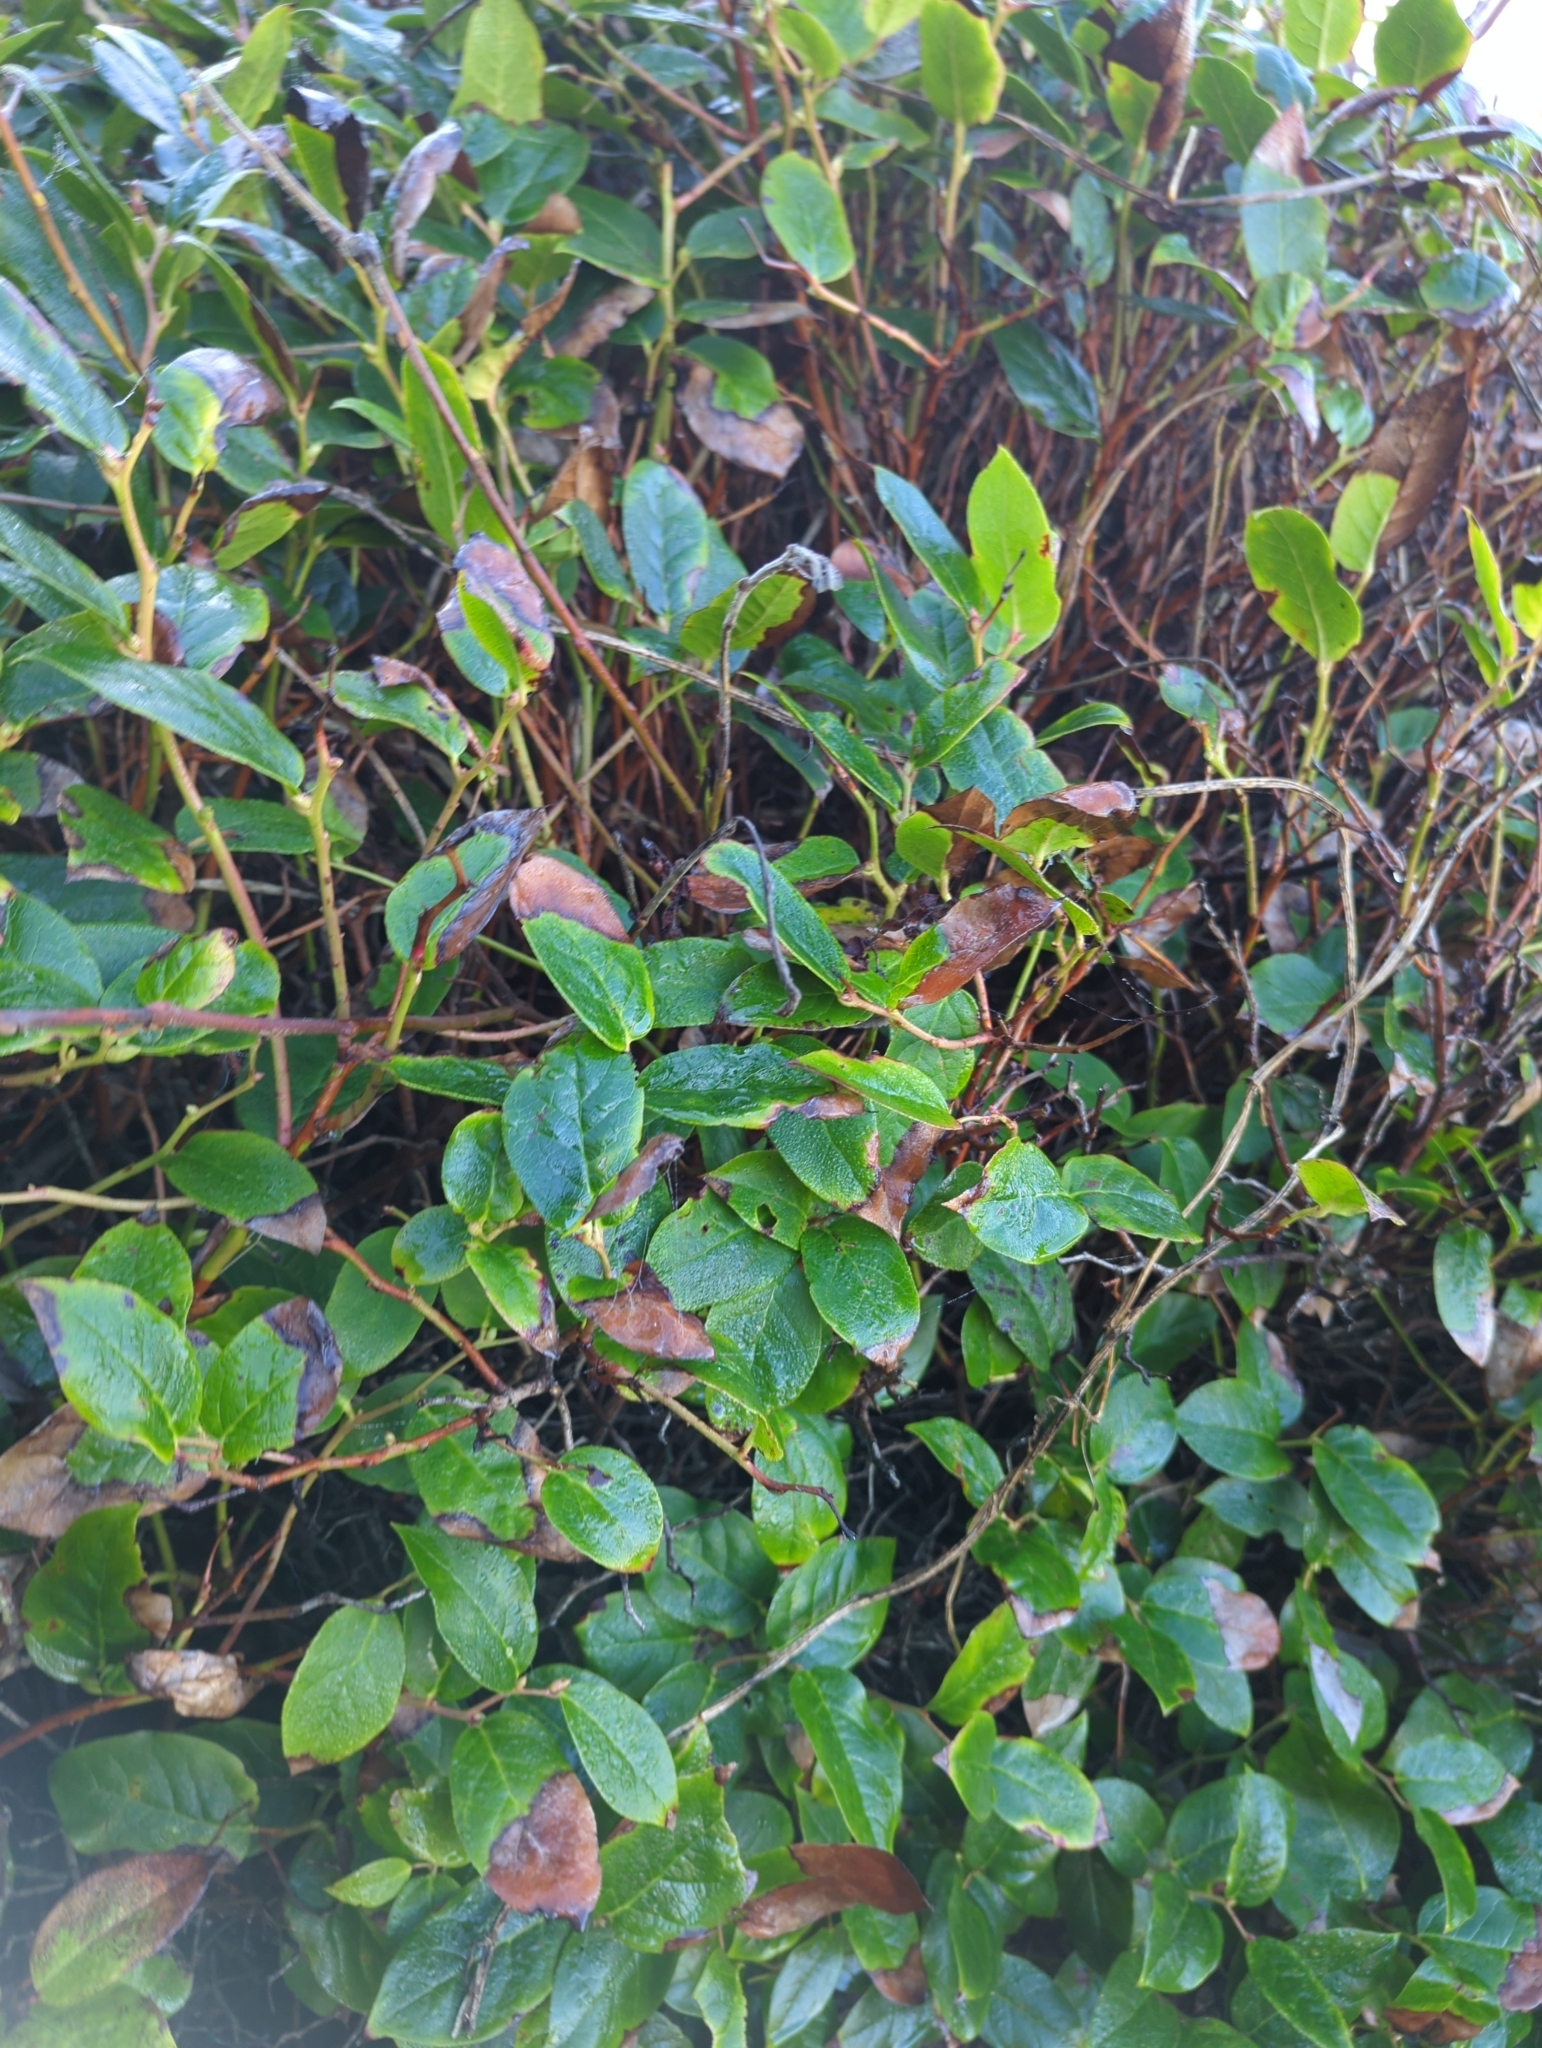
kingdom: Plantae
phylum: Tracheophyta
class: Magnoliopsida
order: Ericales
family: Ericaceae
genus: Gaultheria
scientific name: Gaultheria shallon
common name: Shallon
